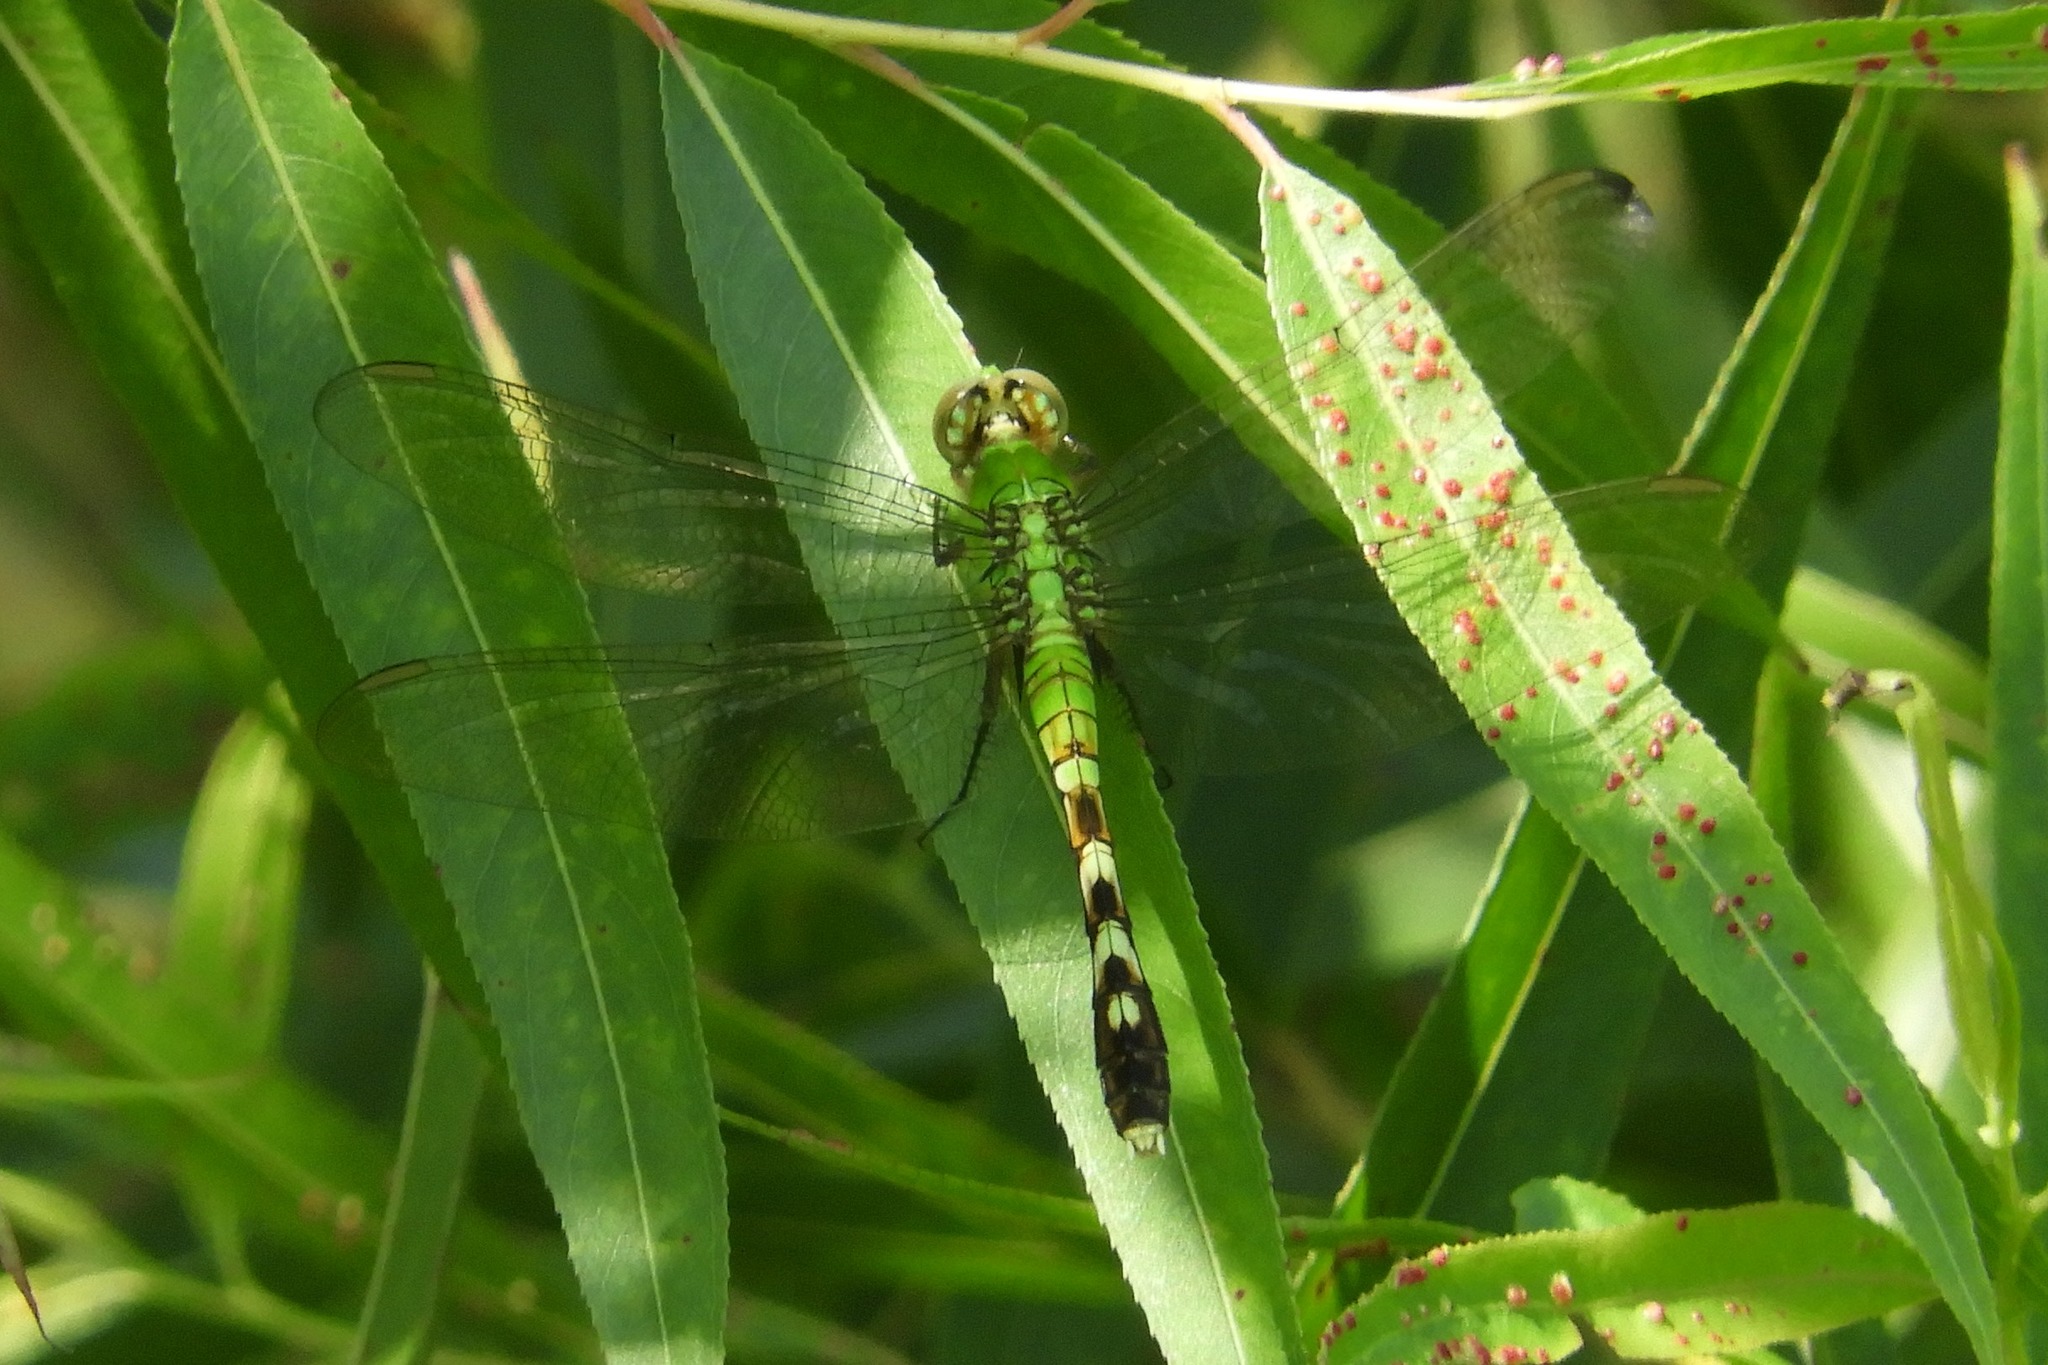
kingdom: Animalia
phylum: Arthropoda
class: Insecta
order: Odonata
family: Libellulidae
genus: Erythemis
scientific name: Erythemis simplicicollis
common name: Eastern pondhawk
